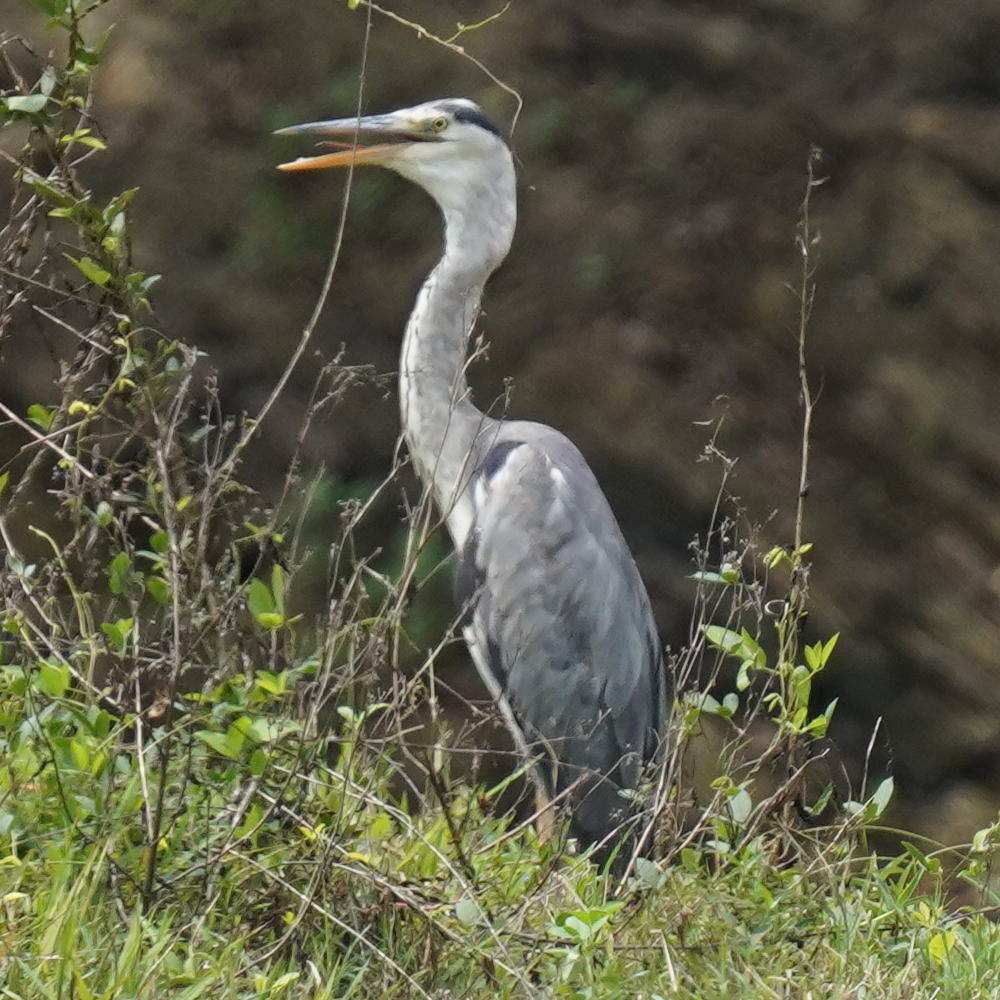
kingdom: Animalia
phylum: Chordata
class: Aves
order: Pelecaniformes
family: Ardeidae
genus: Ardea
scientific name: Ardea cinerea
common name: Grey heron
